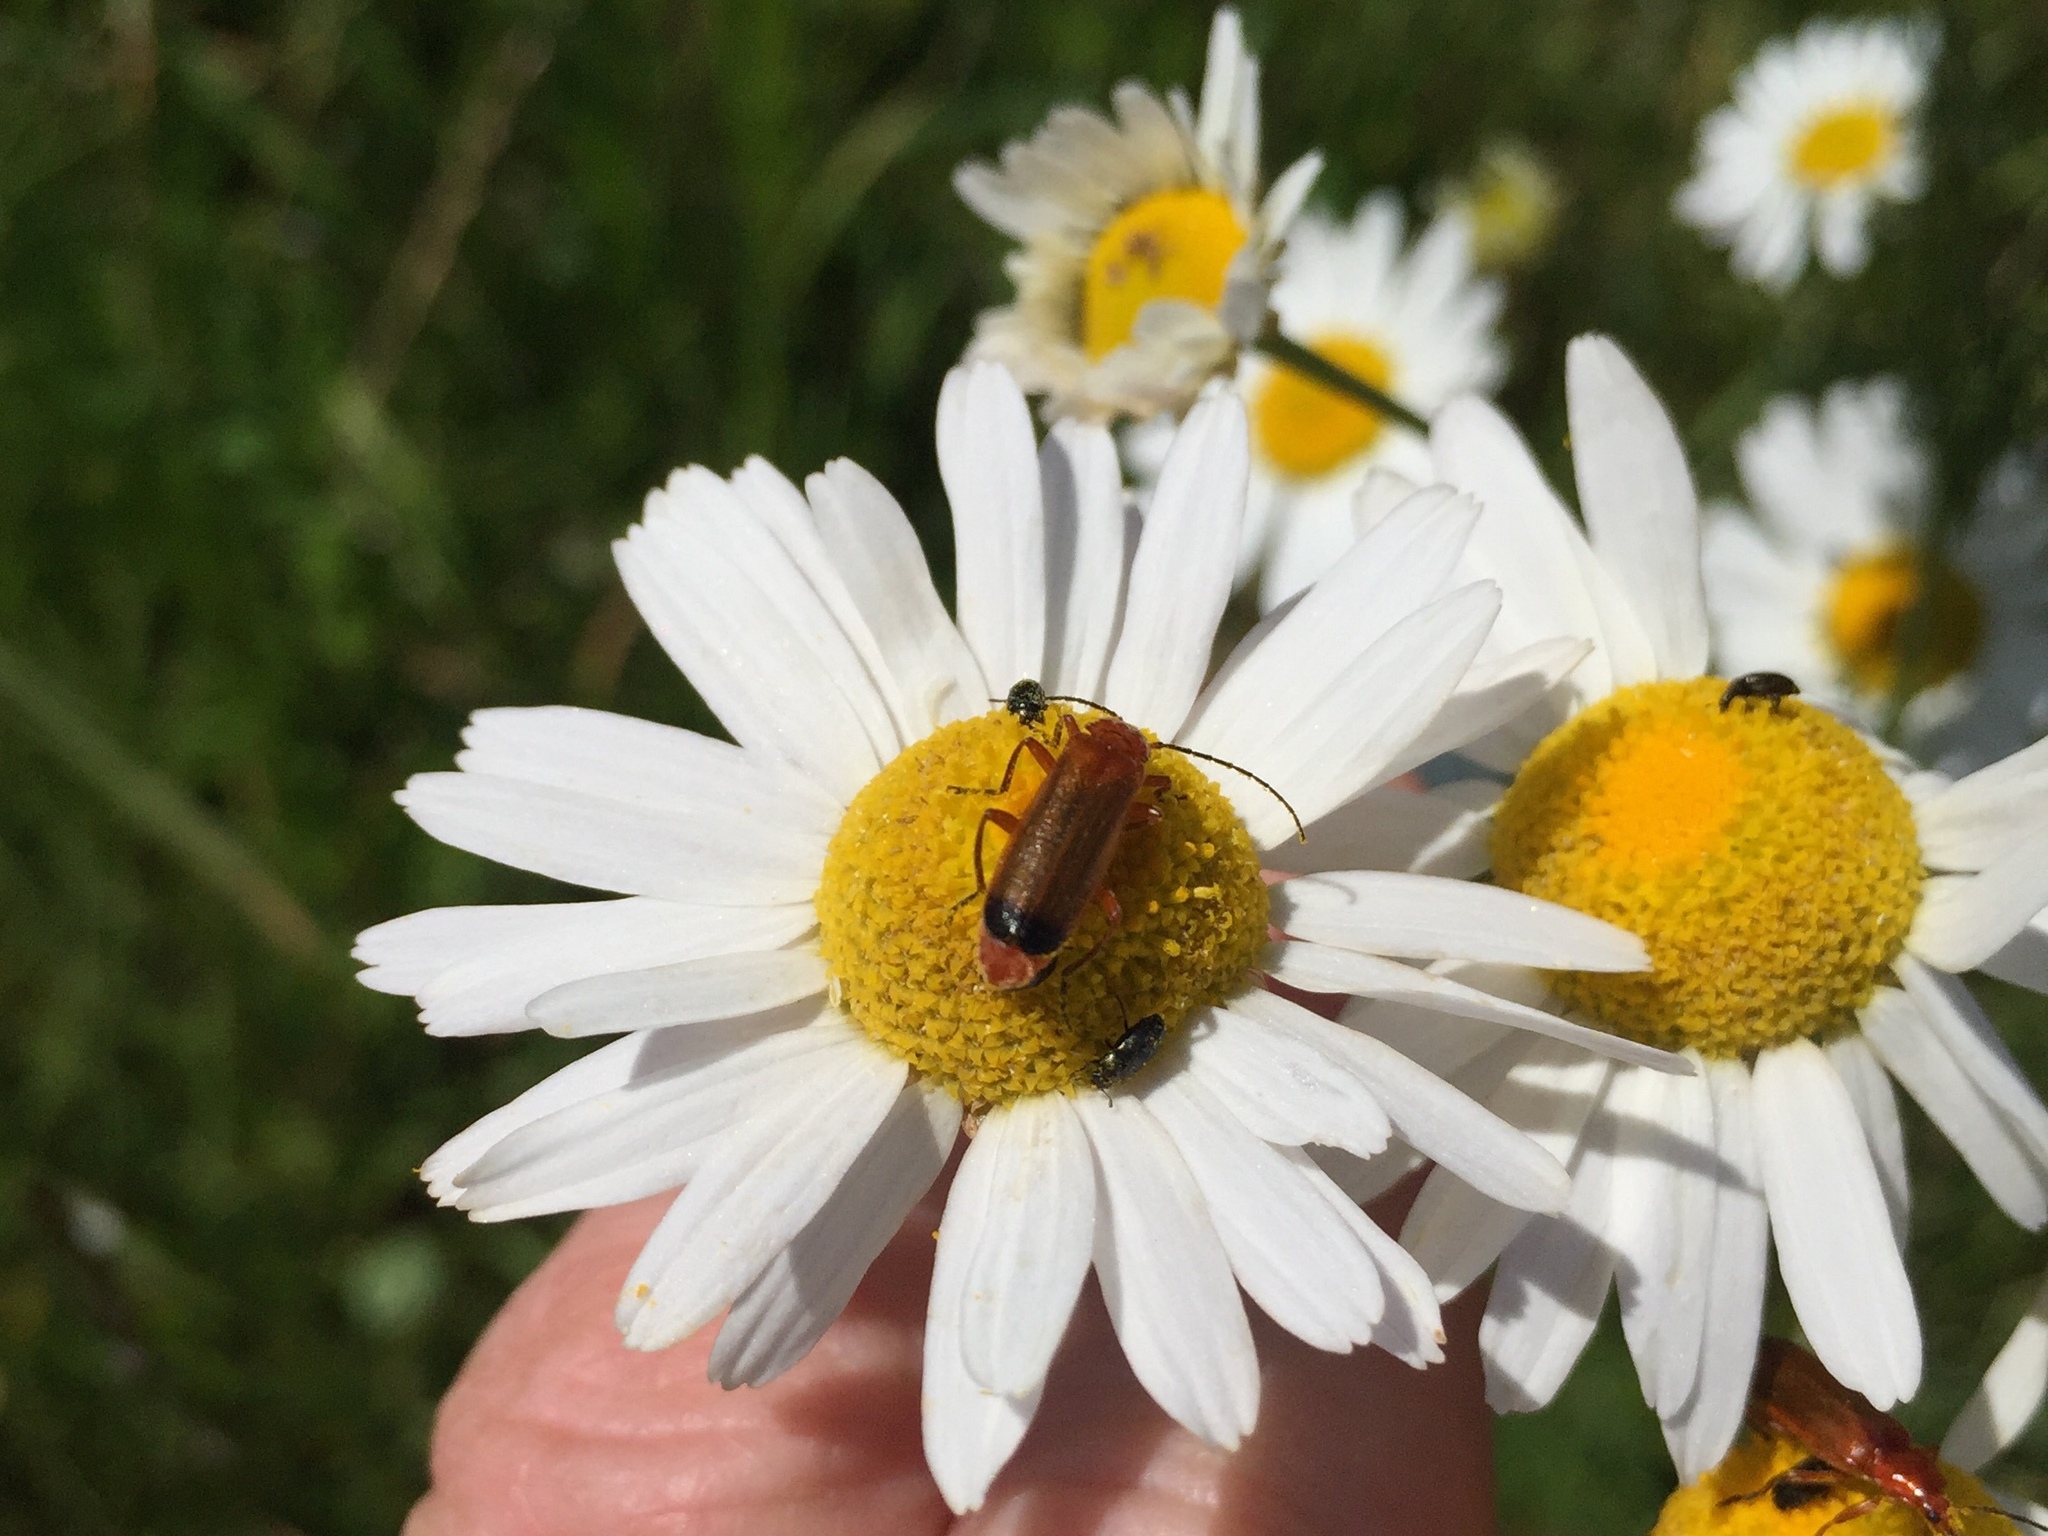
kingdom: Animalia
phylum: Arthropoda
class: Insecta
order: Coleoptera
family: Cantharidae
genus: Rhagonycha
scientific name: Rhagonycha fulva
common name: Common red soldier beetle
